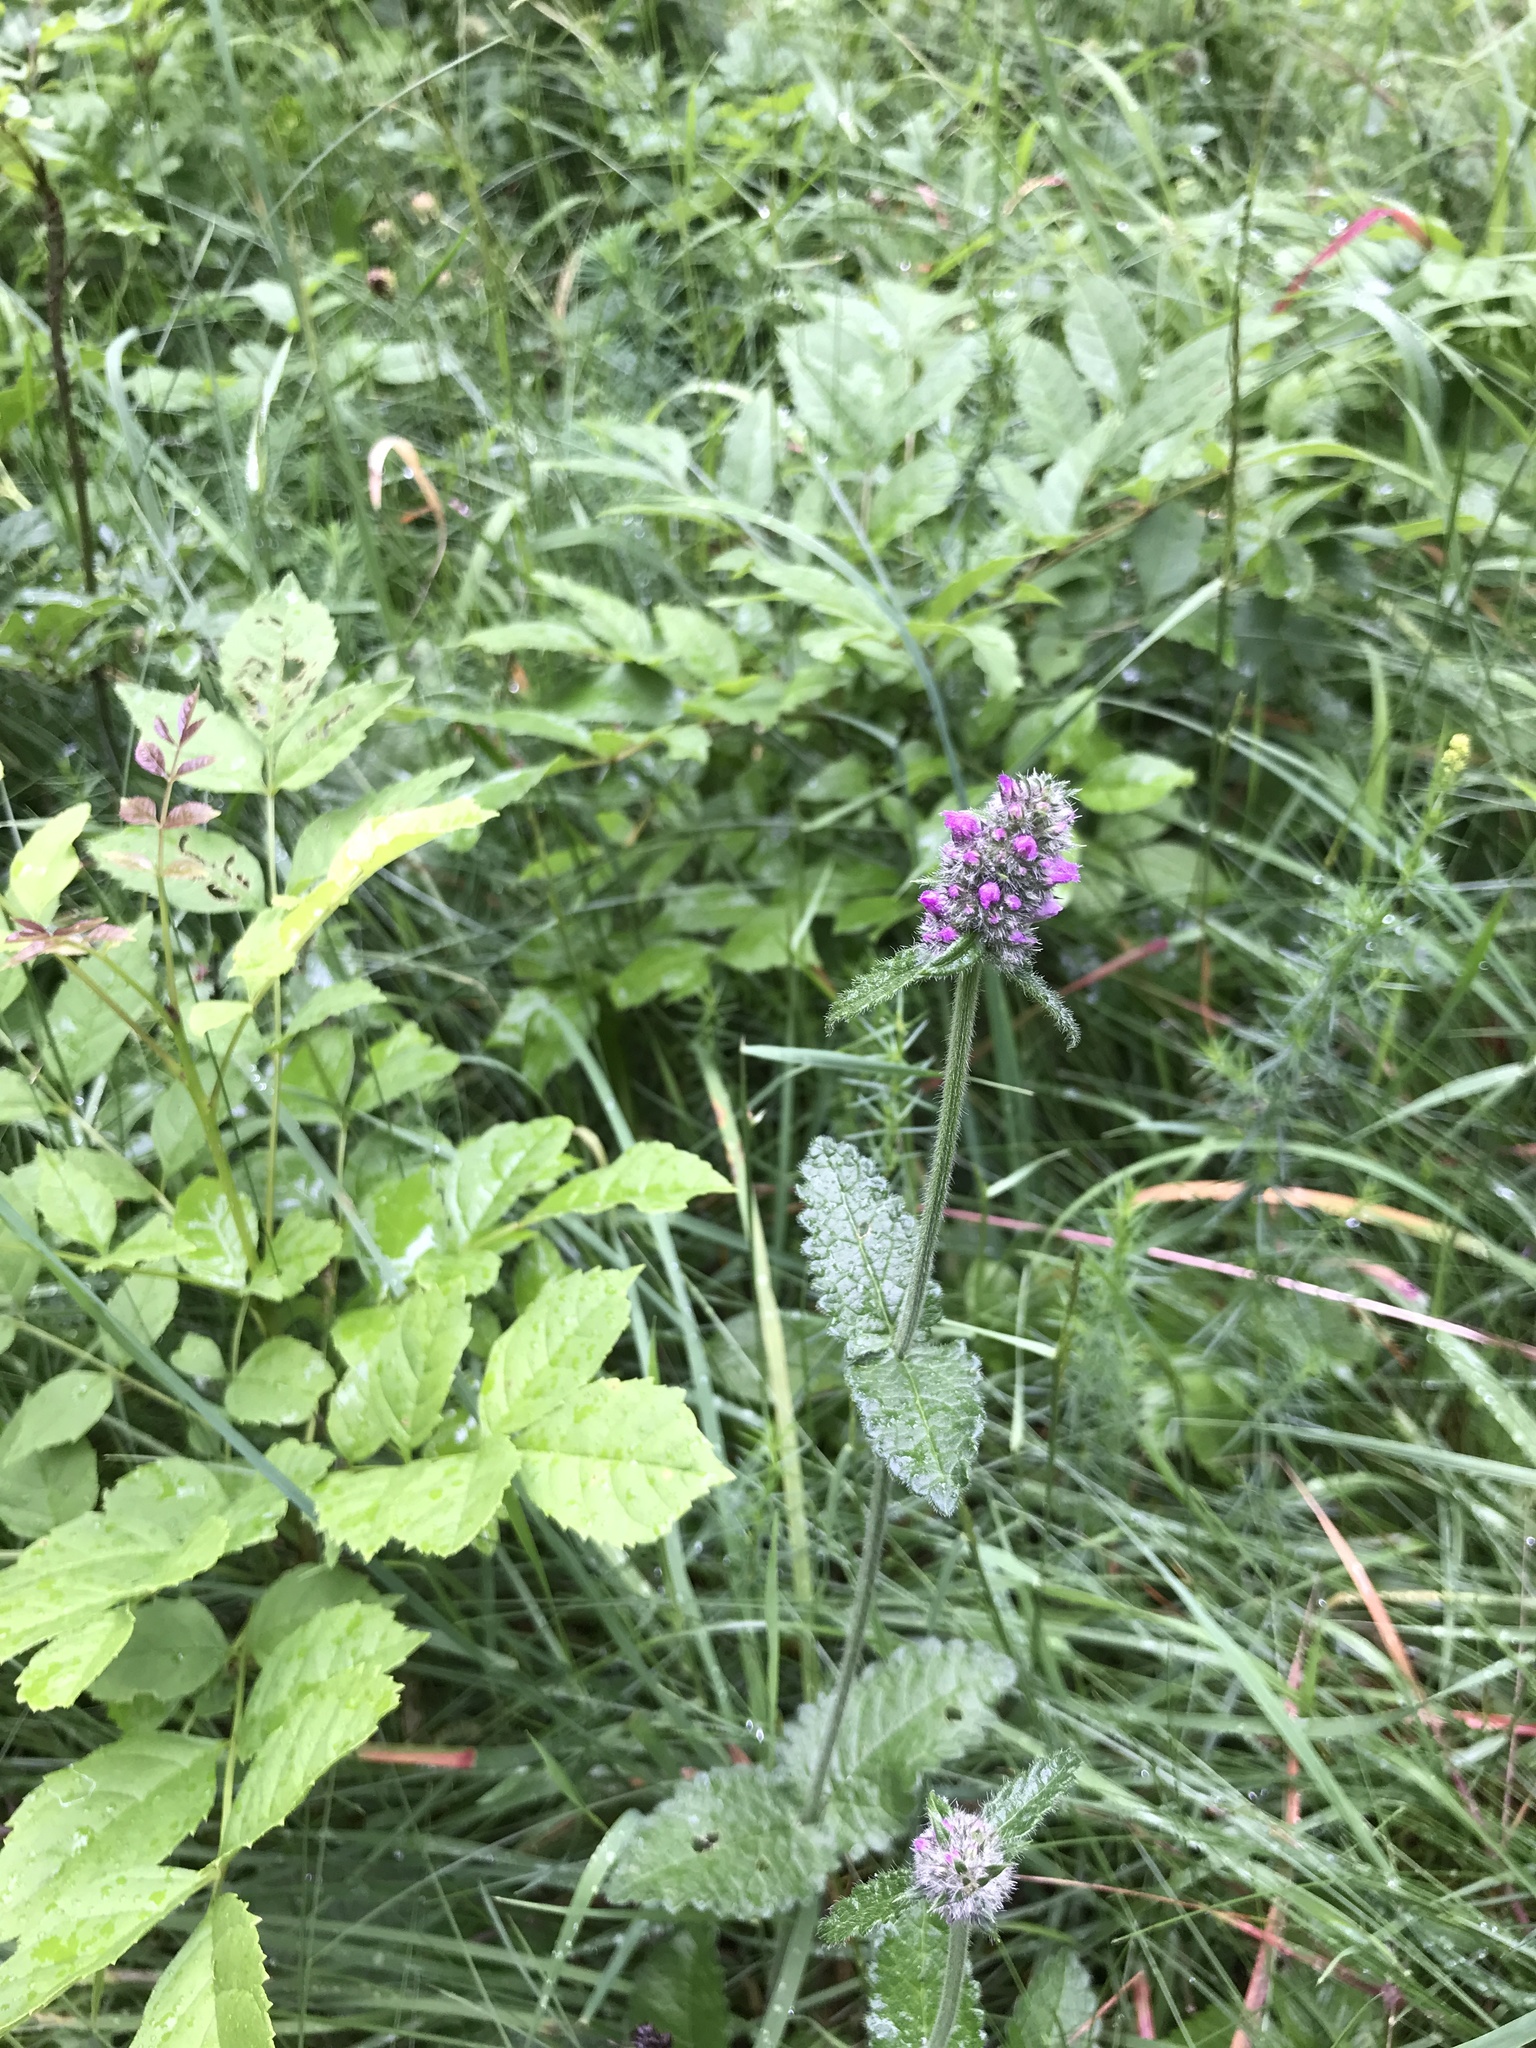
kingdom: Plantae
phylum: Tracheophyta
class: Magnoliopsida
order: Lamiales
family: Lamiaceae
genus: Betonica
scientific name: Betonica officinalis
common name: Bishop's-wort
